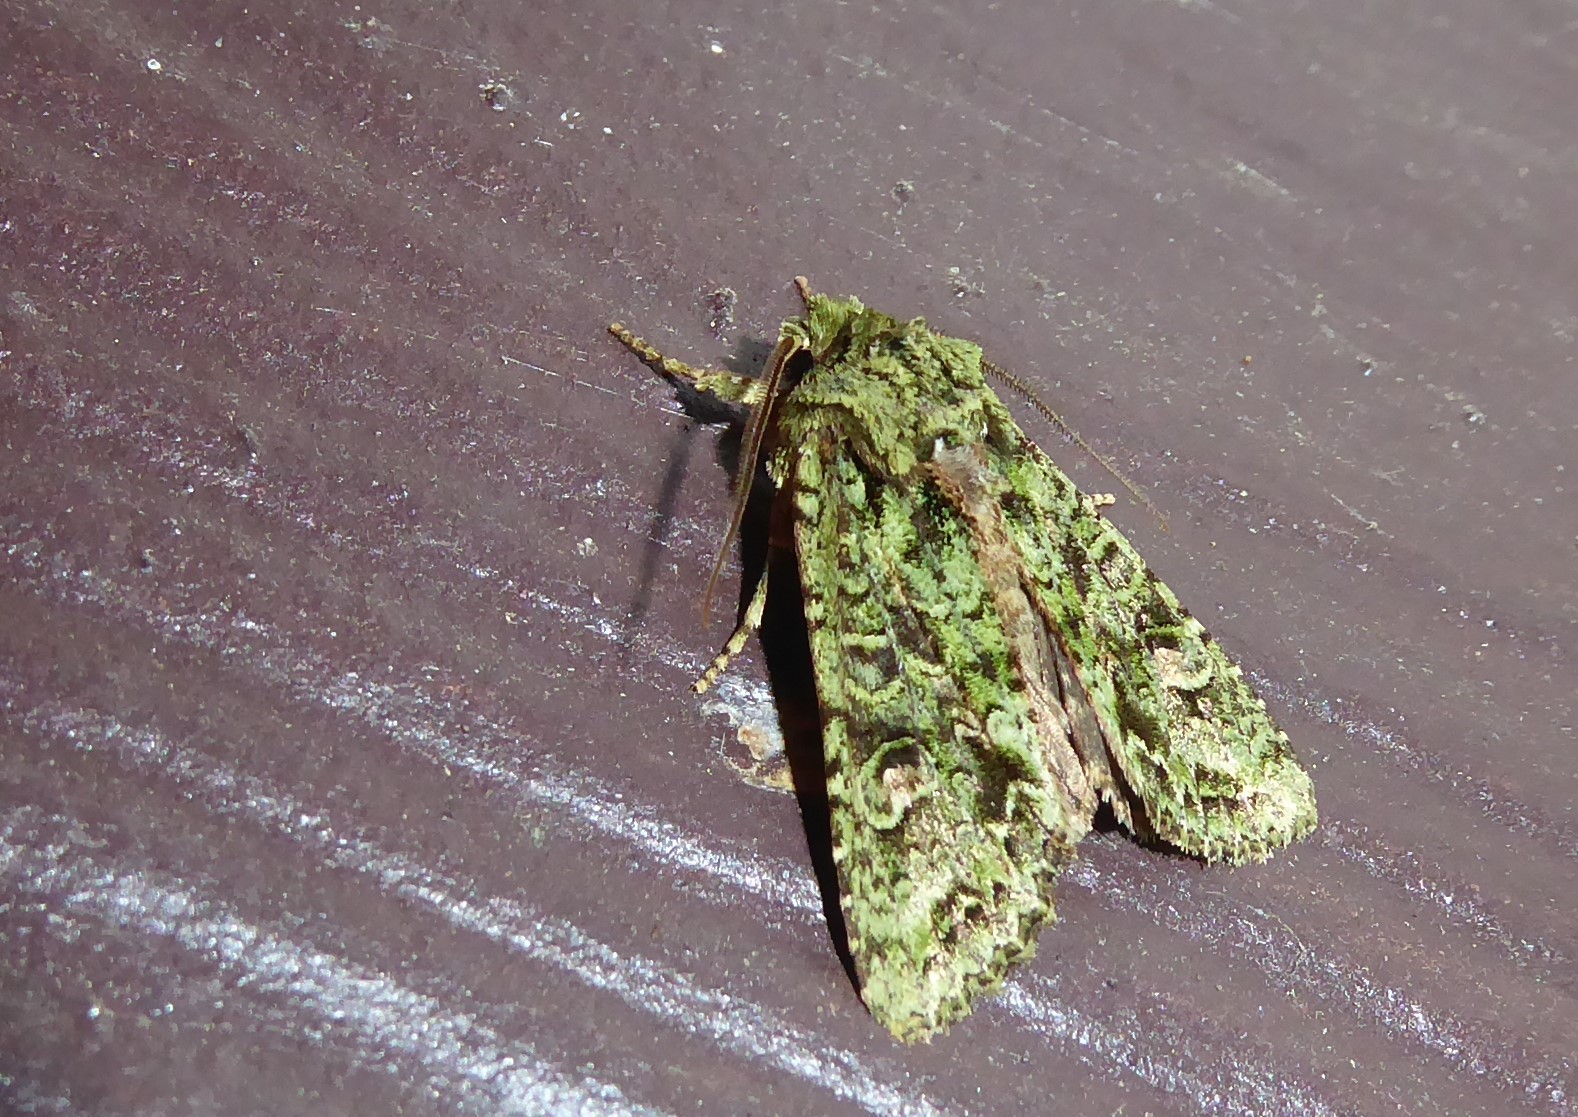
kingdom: Animalia
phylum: Arthropoda
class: Insecta
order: Lepidoptera
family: Noctuidae
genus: Ichneutica
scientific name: Ichneutica
